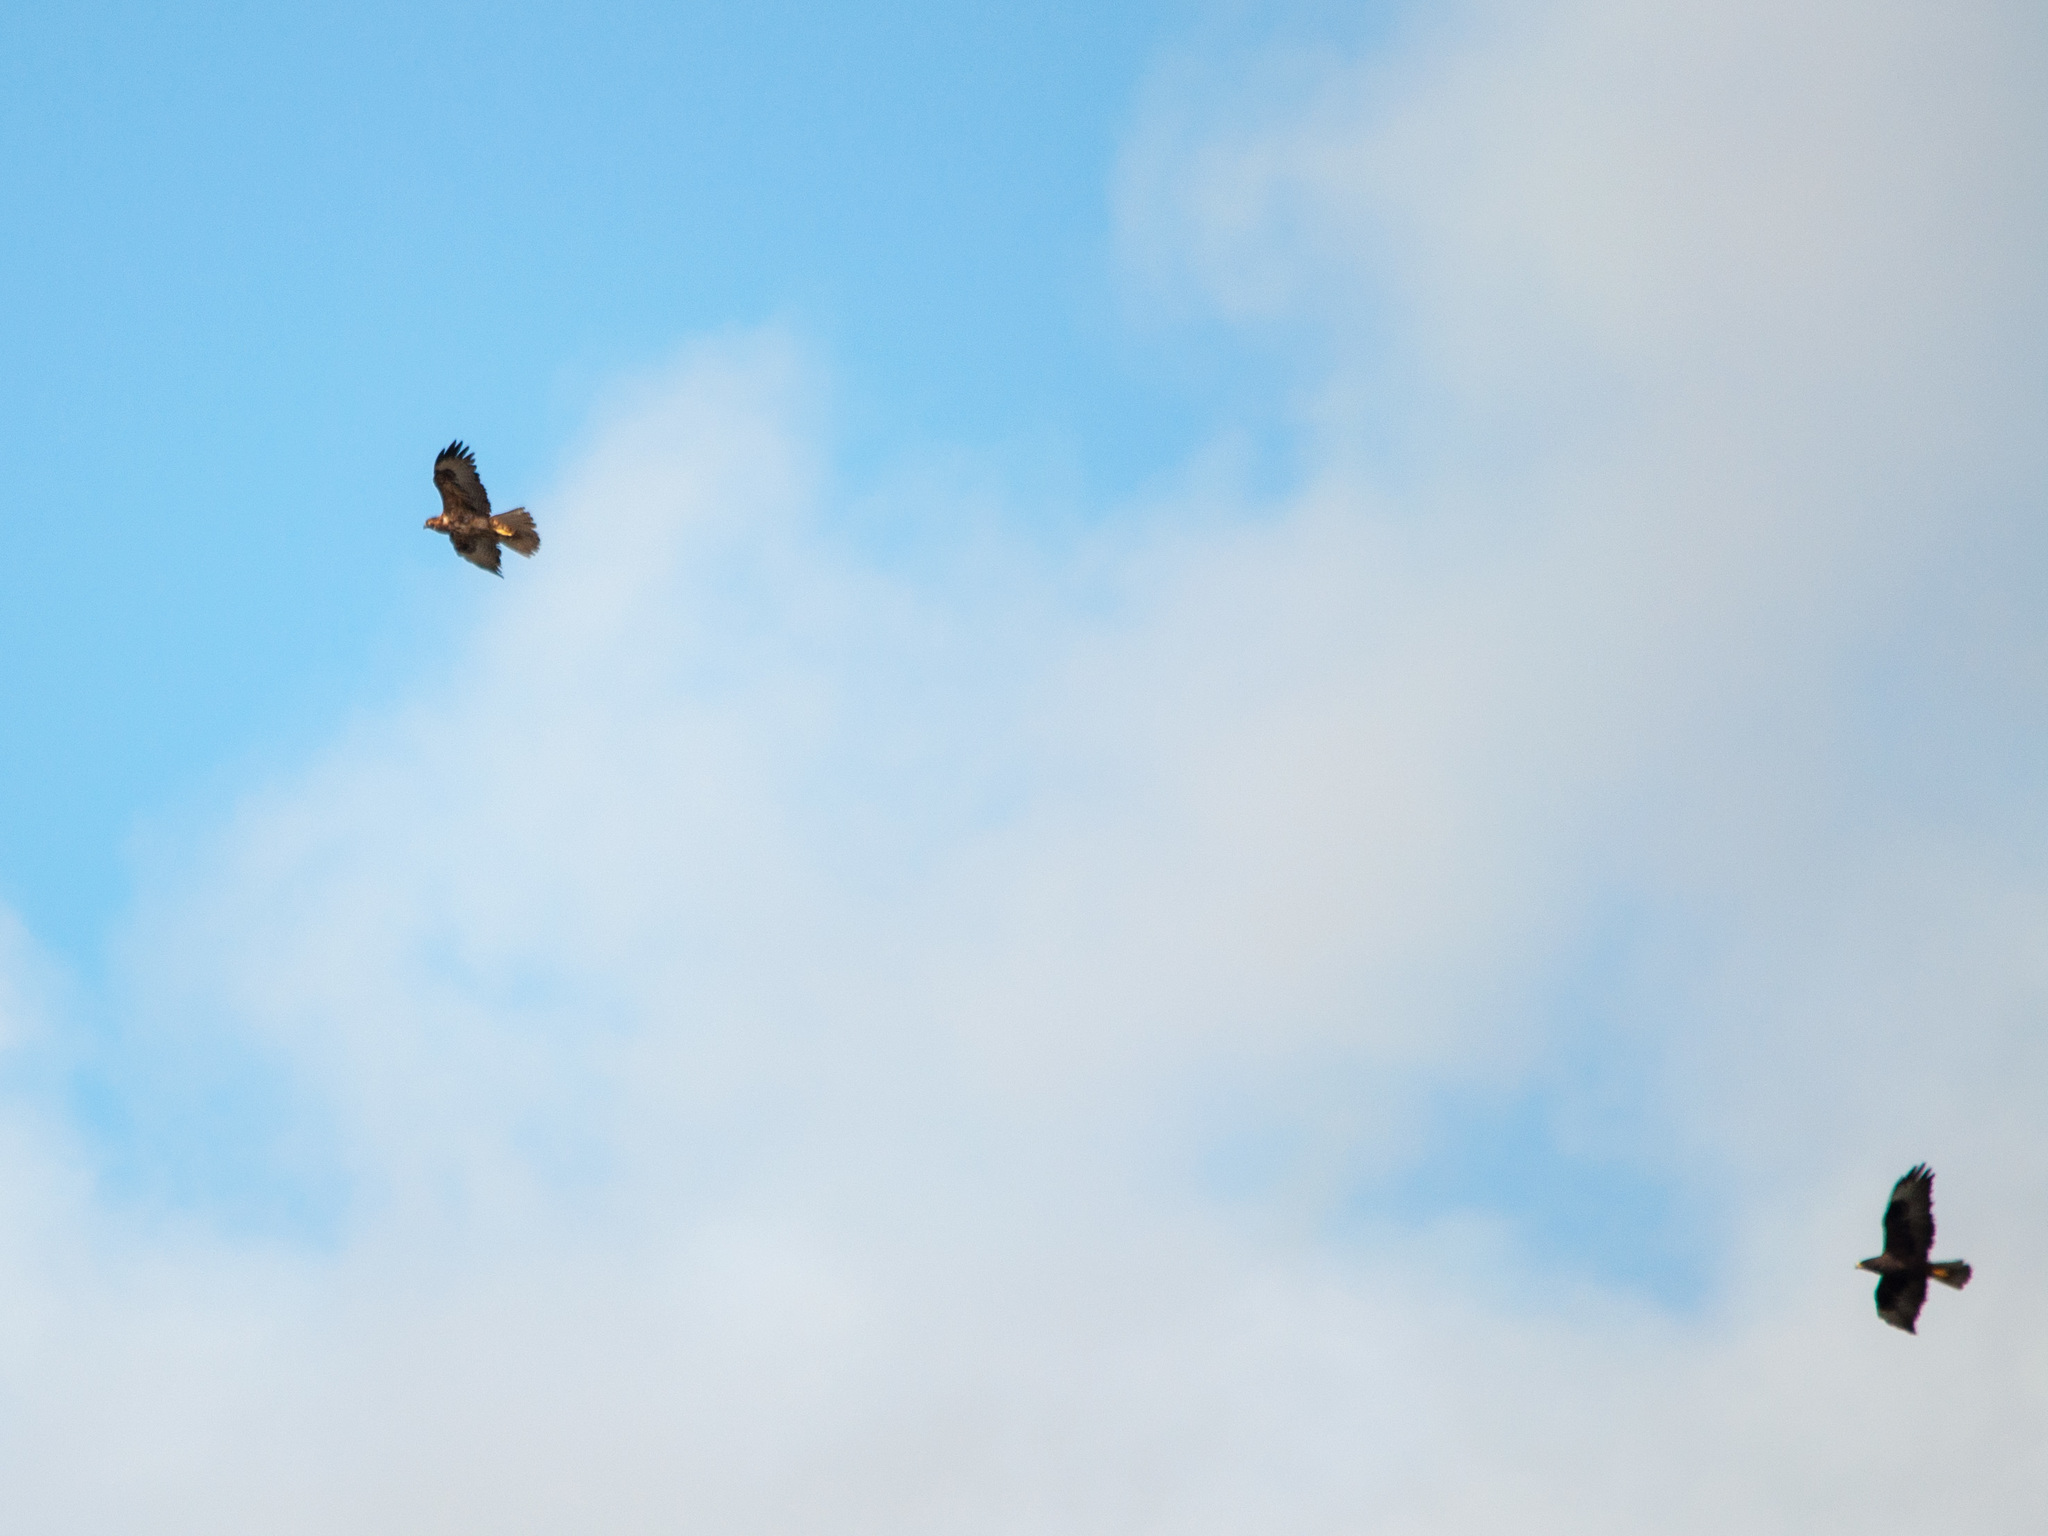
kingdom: Animalia
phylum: Chordata
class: Aves
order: Accipitriformes
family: Accipitridae
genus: Buteo
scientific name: Buteo galapagoensis
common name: Galapagos hawk
